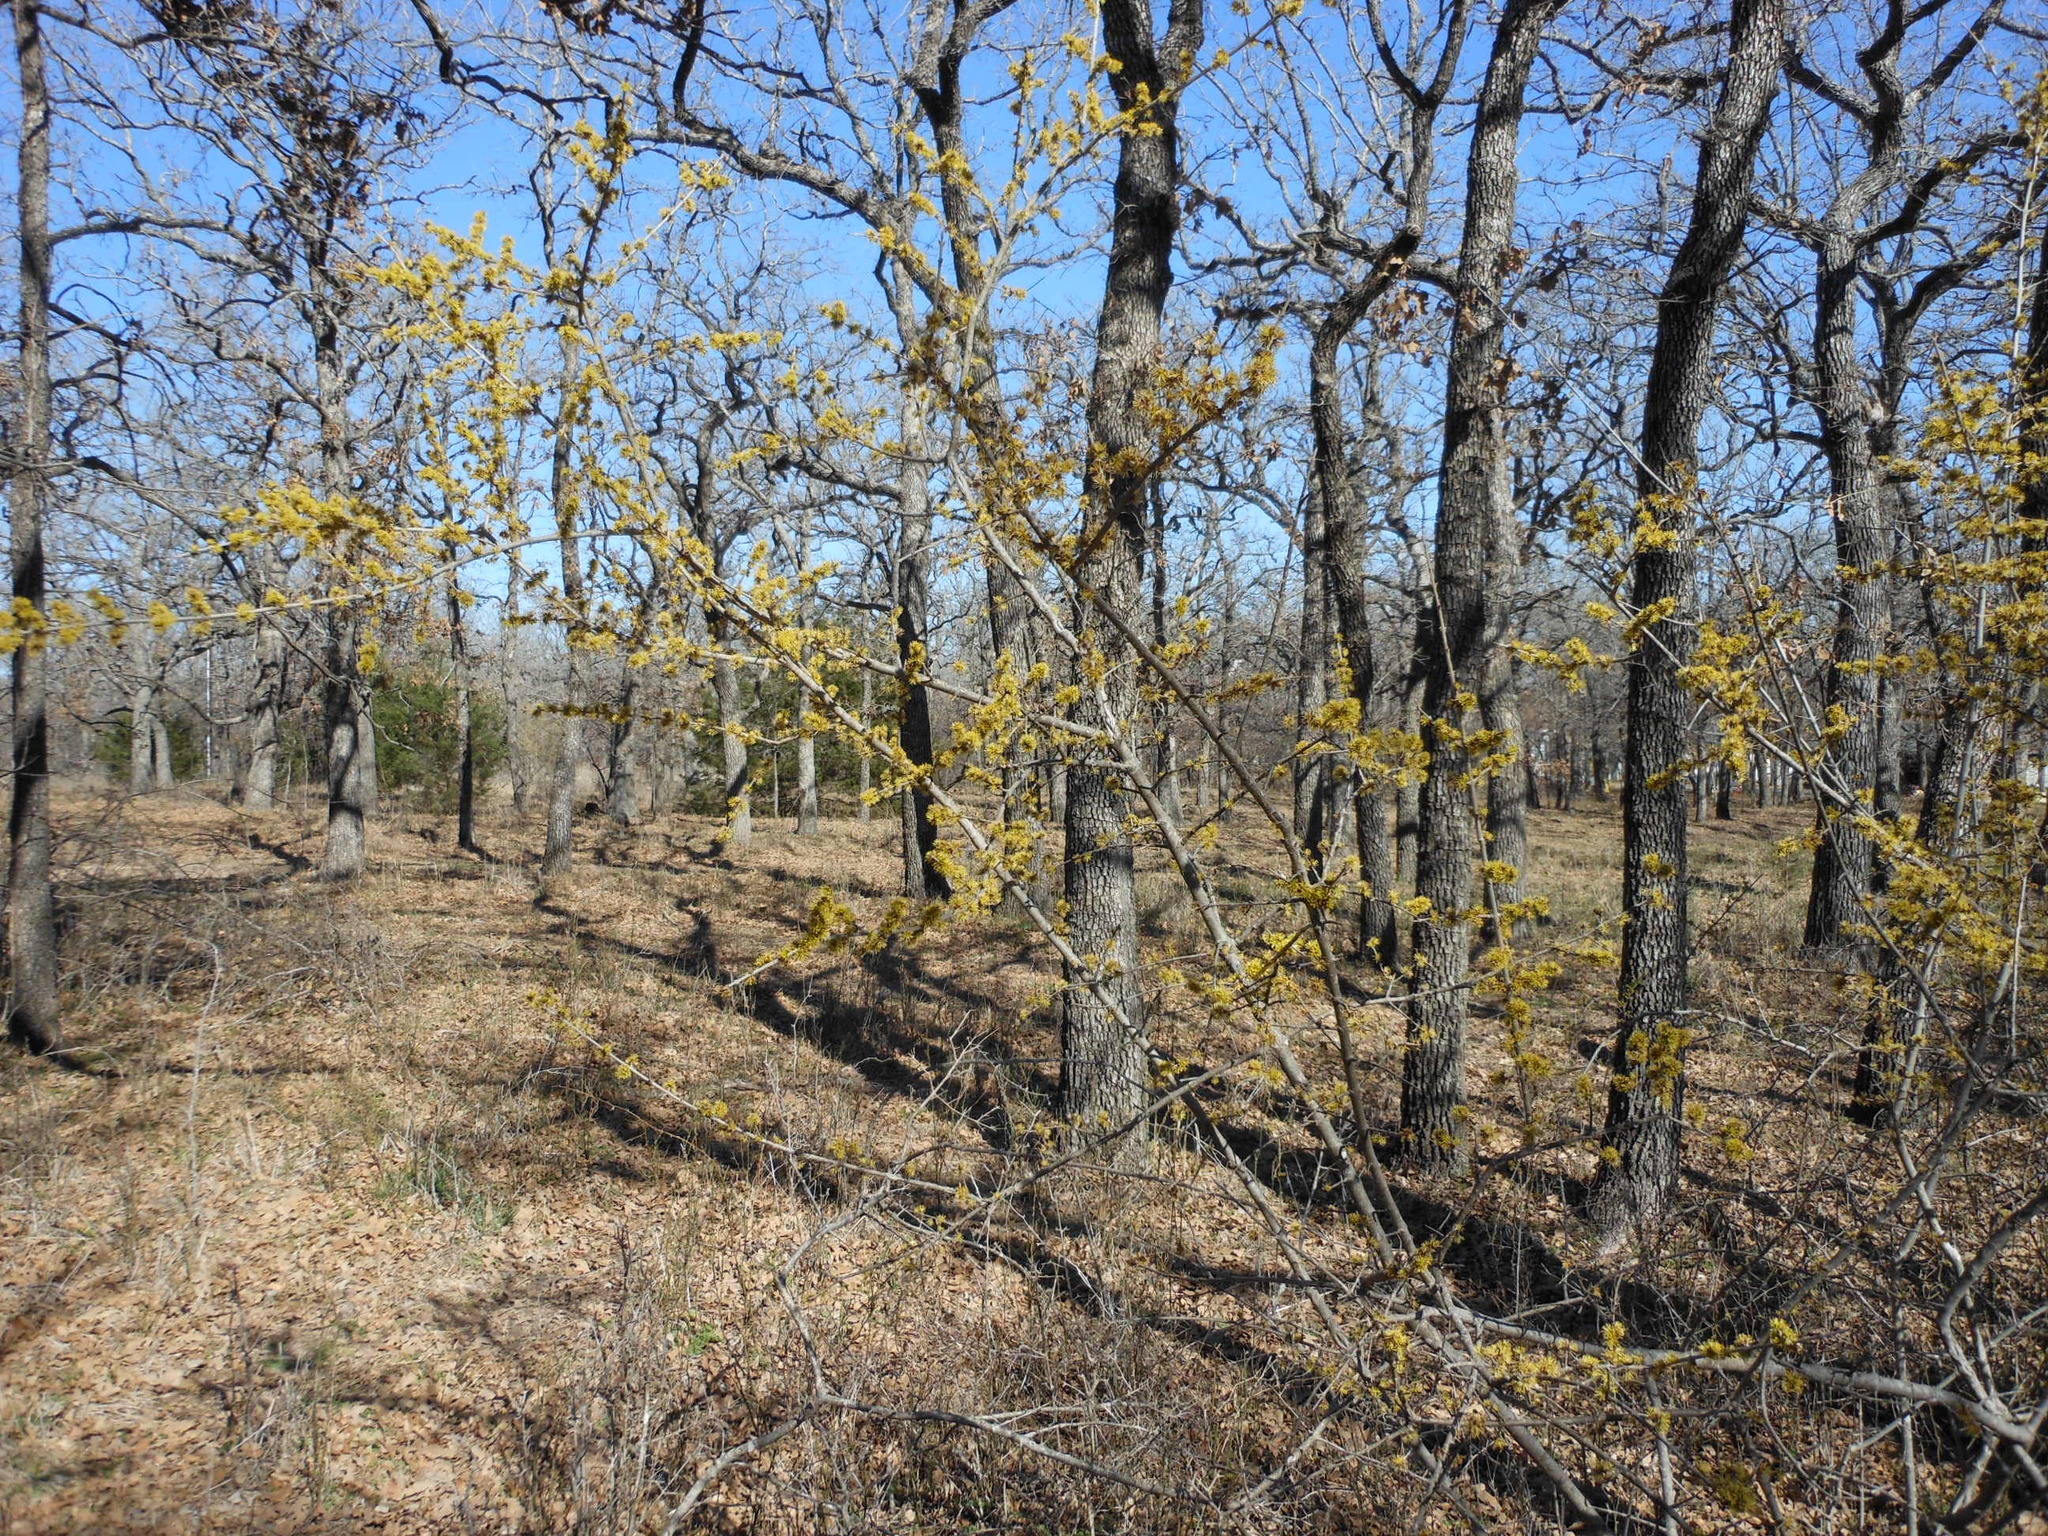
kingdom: Plantae
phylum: Tracheophyta
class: Magnoliopsida
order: Lamiales
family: Oleaceae
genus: Forestiera
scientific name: Forestiera pubescens
